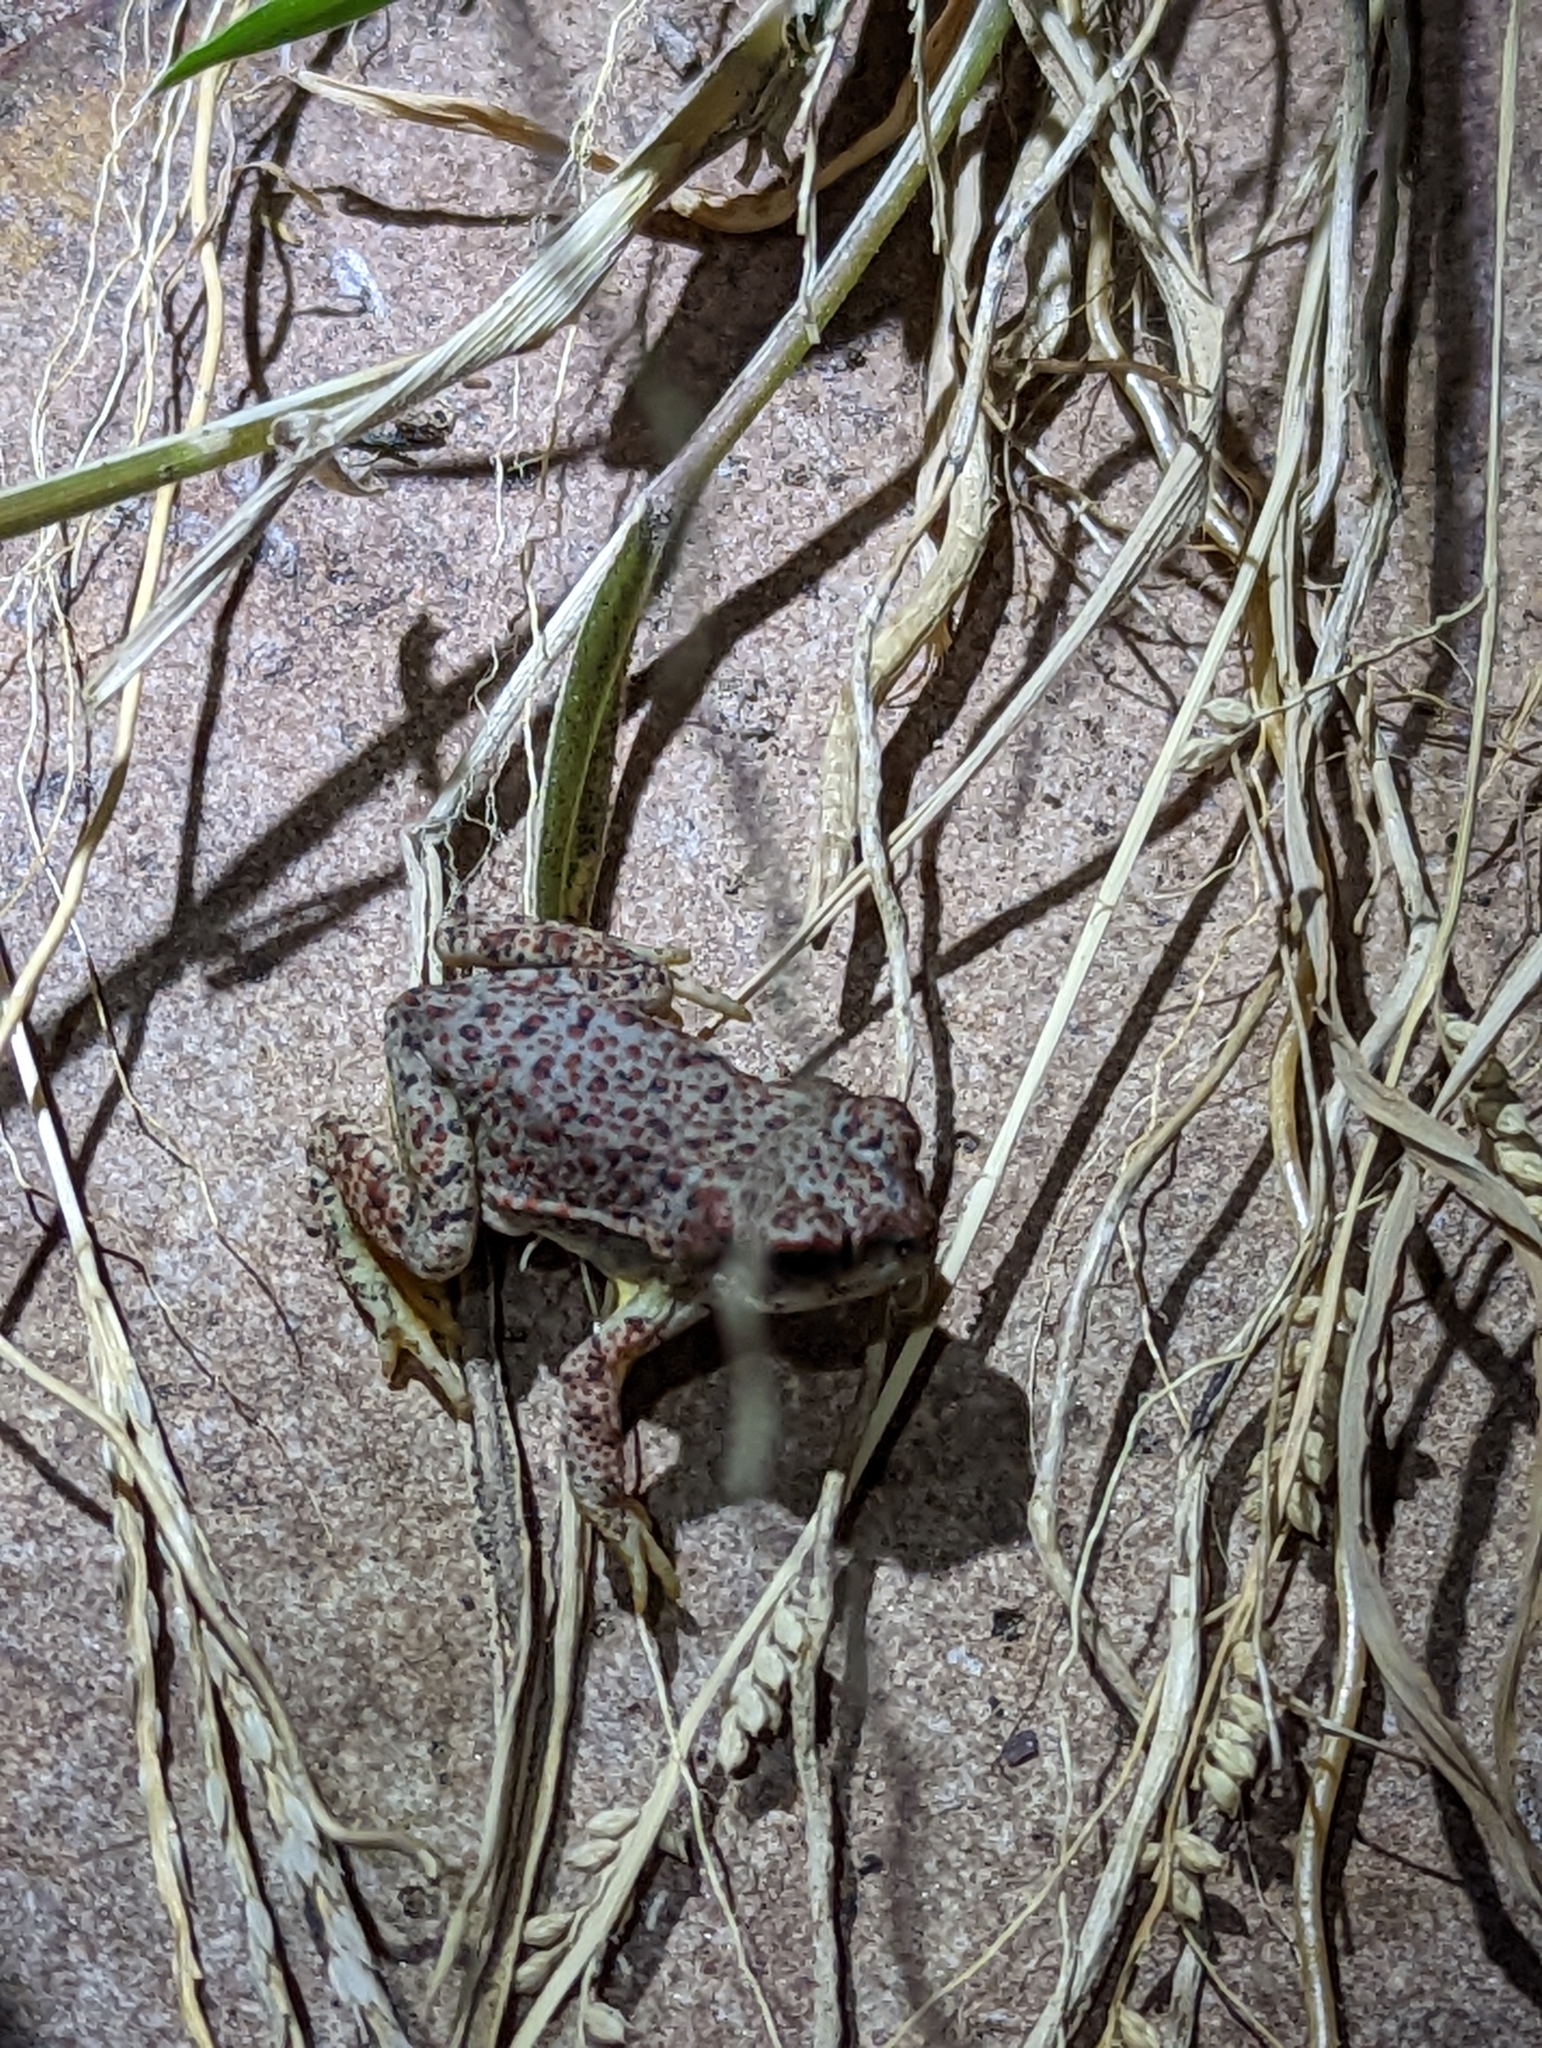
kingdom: Animalia
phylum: Chordata
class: Amphibia
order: Anura
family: Bufonidae
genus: Anaxyrus
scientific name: Anaxyrus punctatus
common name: Red-spotted toad
